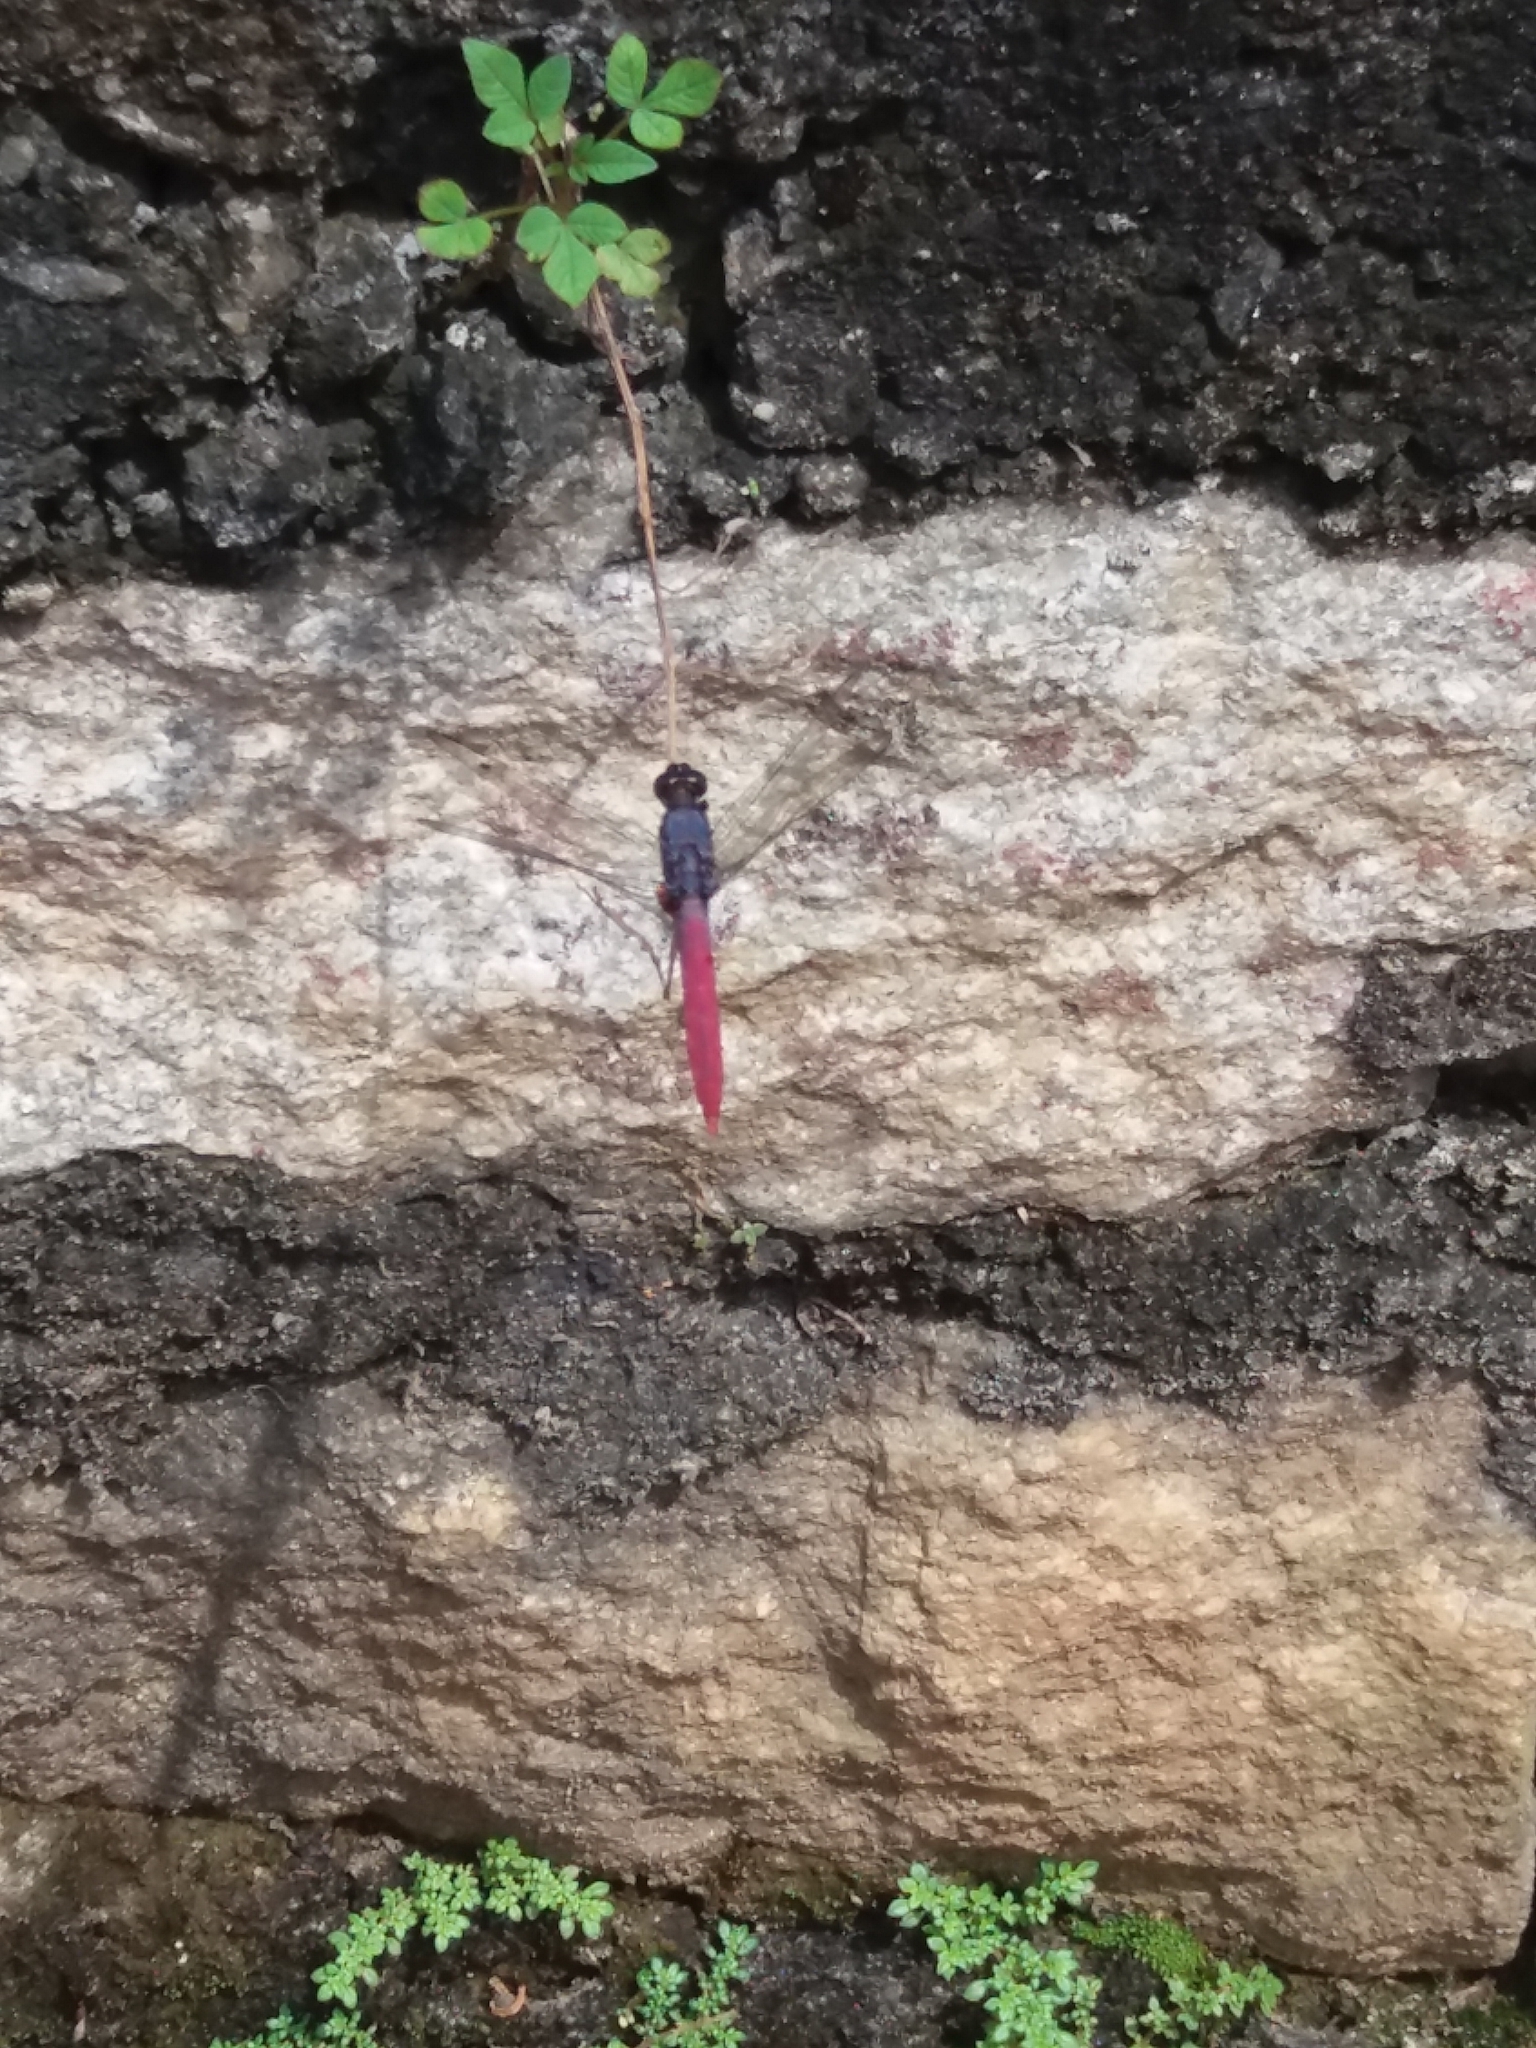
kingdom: Animalia
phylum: Arthropoda
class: Insecta
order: Odonata
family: Libellulidae
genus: Orthetrum
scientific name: Orthetrum pruinosum
